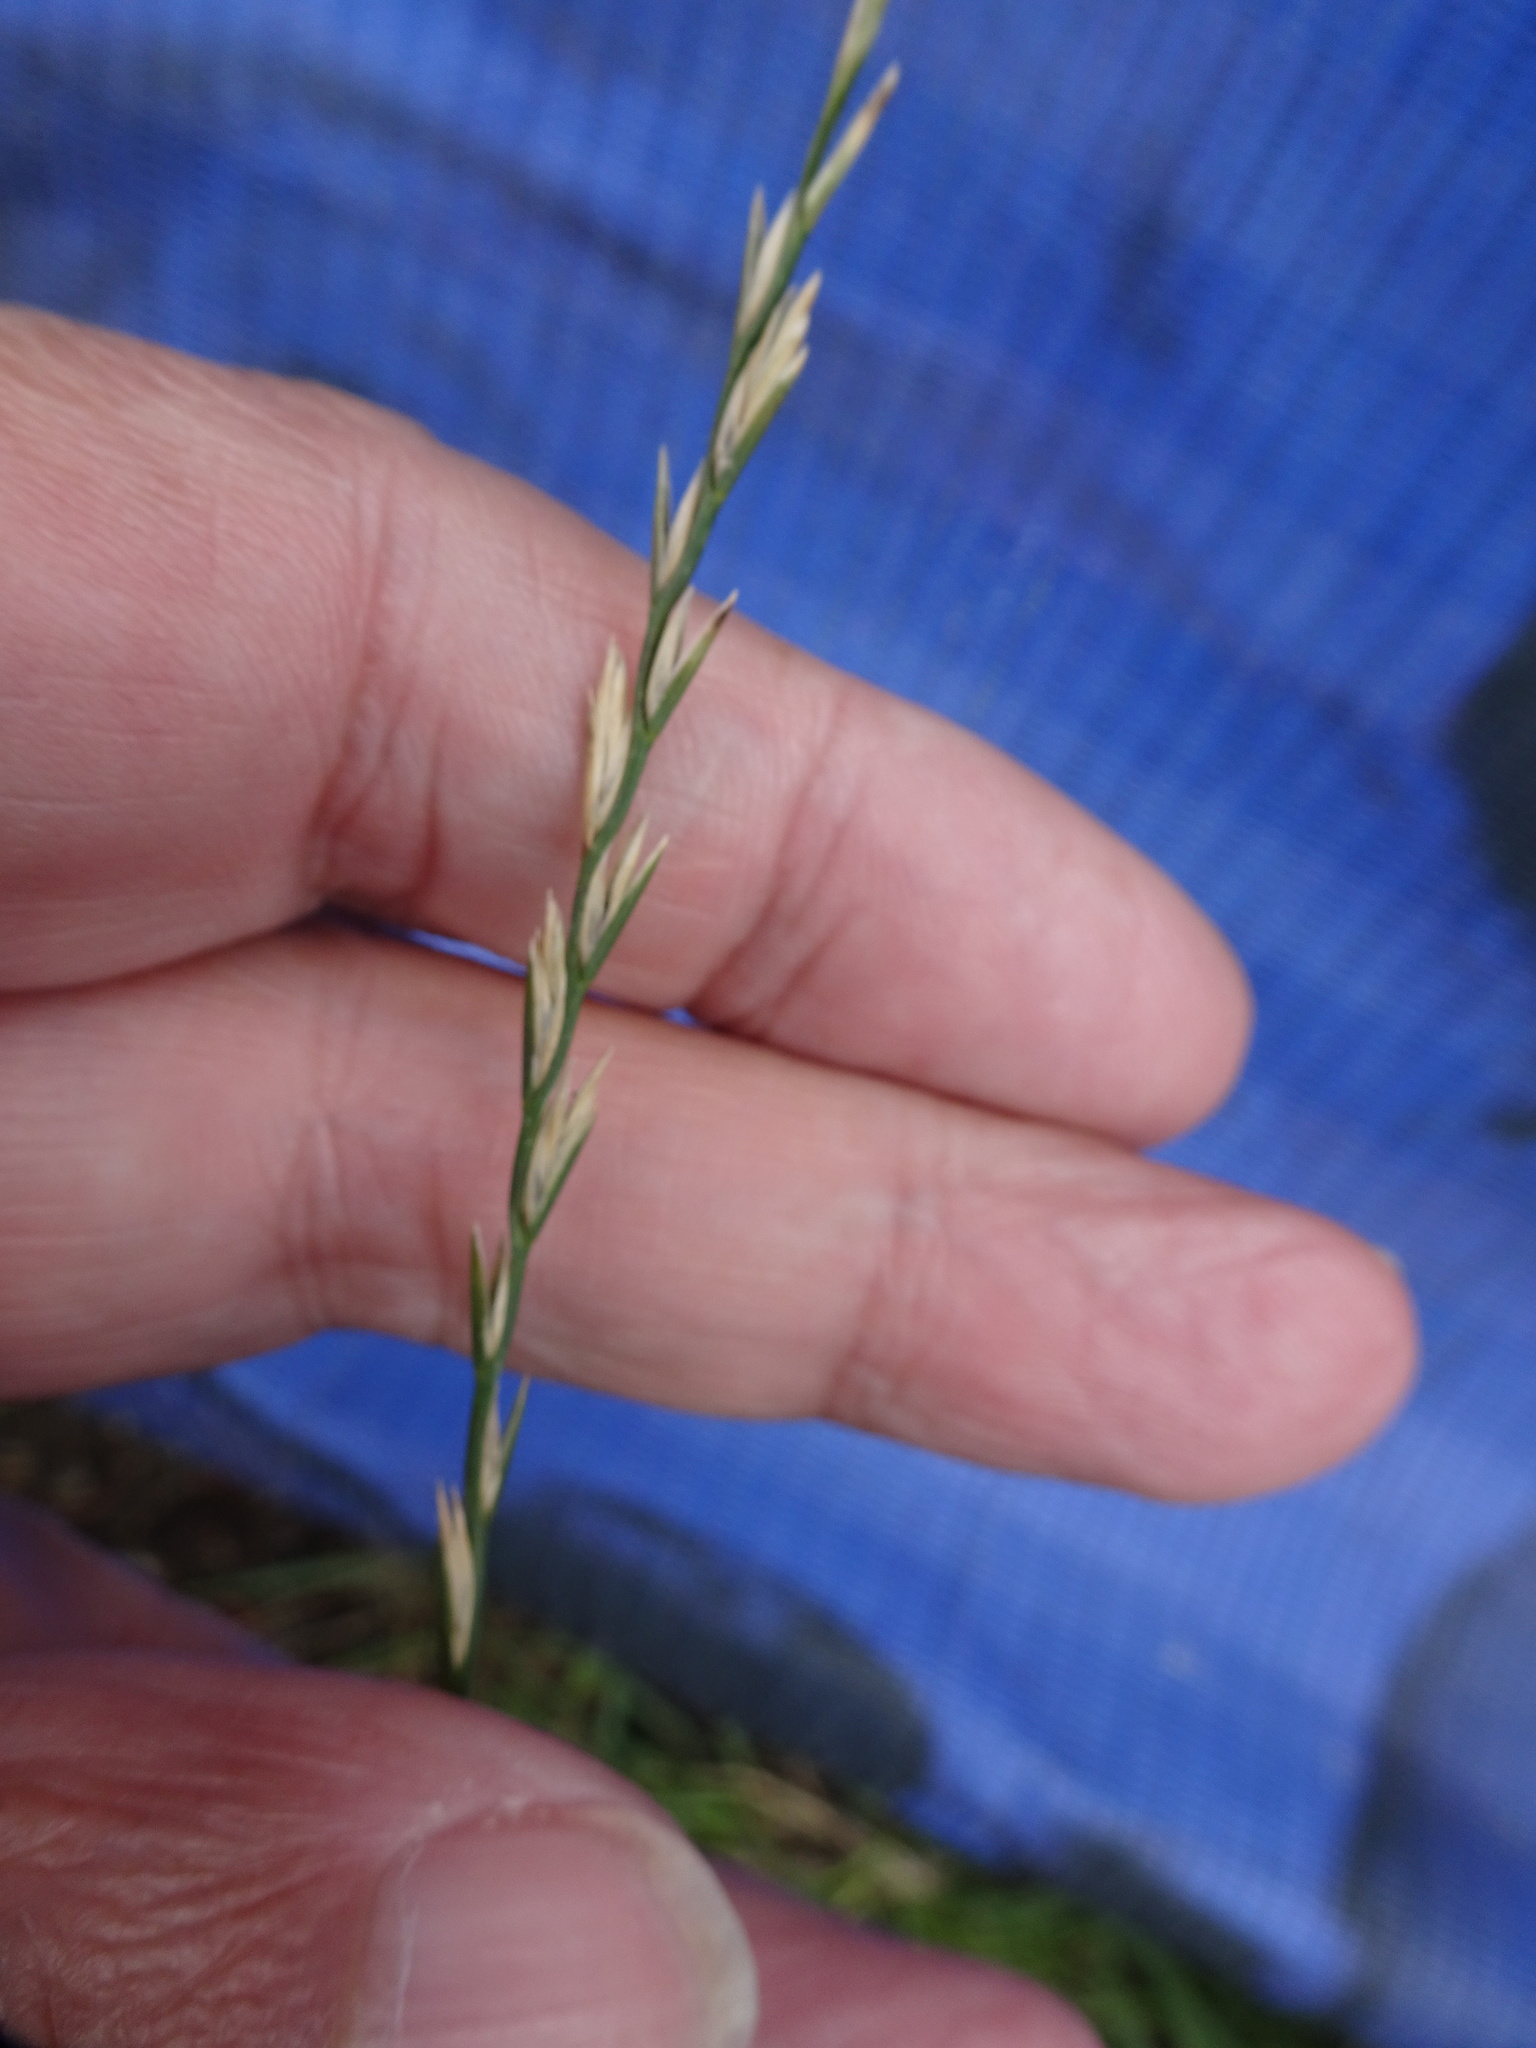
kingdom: Plantae
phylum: Tracheophyta
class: Liliopsida
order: Poales
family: Poaceae
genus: Lolium
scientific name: Lolium perenne
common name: Perennial ryegrass
